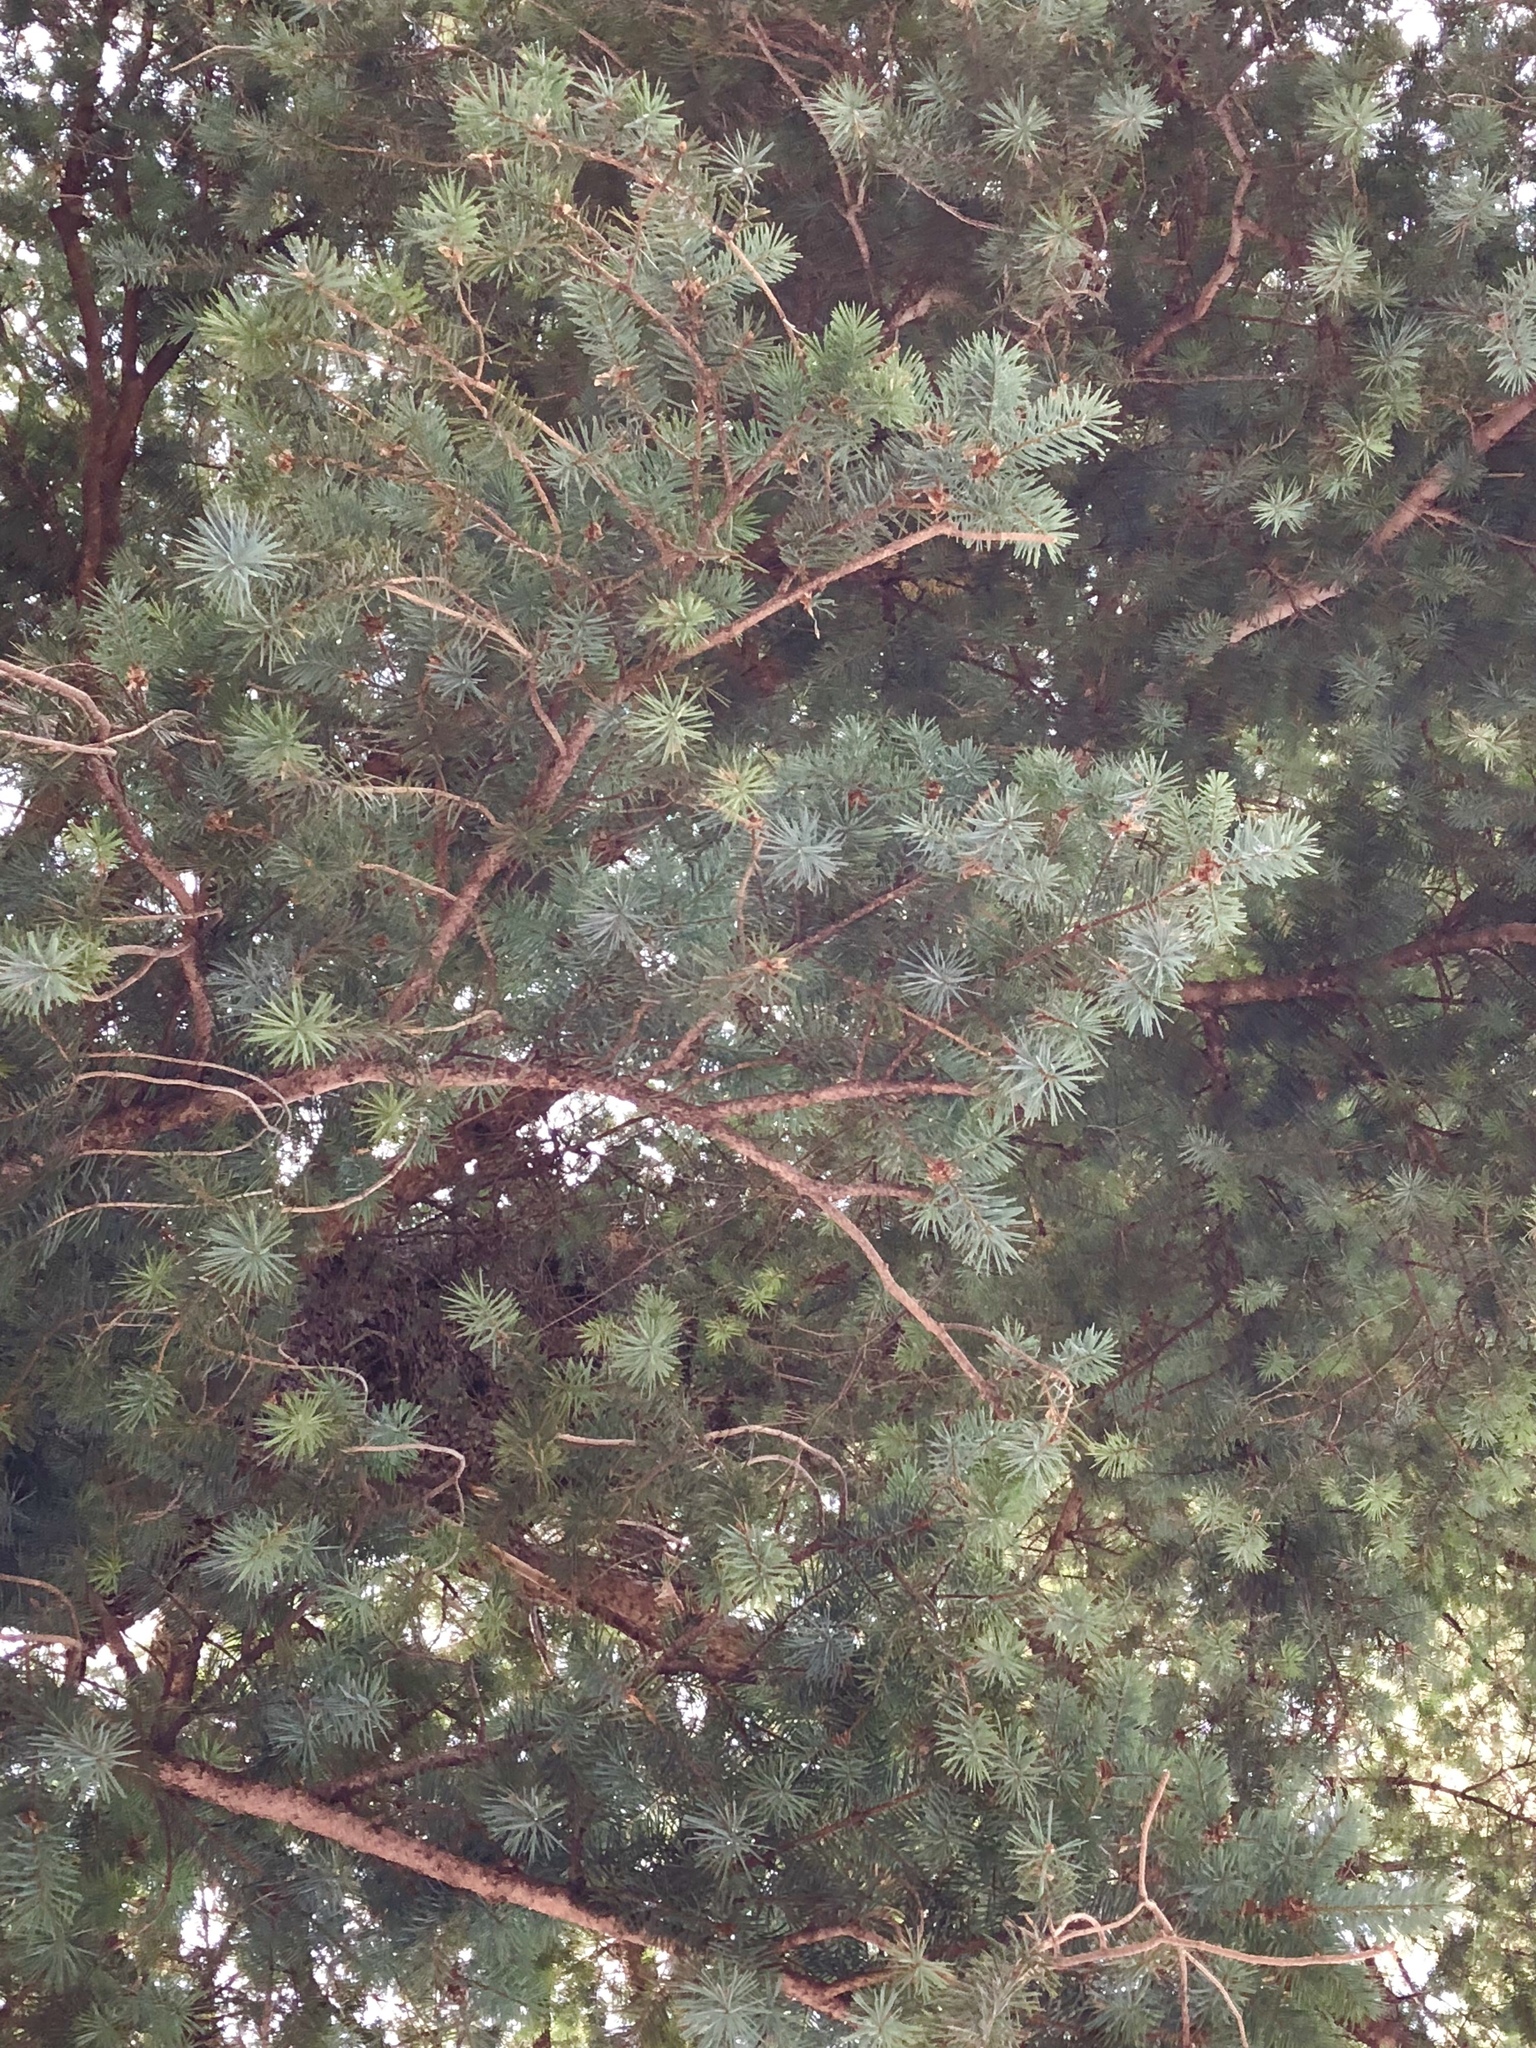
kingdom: Plantae
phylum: Tracheophyta
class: Pinopsida
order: Pinales
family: Pinaceae
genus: Pseudotsuga
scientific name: Pseudotsuga menziesii
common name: Douglas fir
